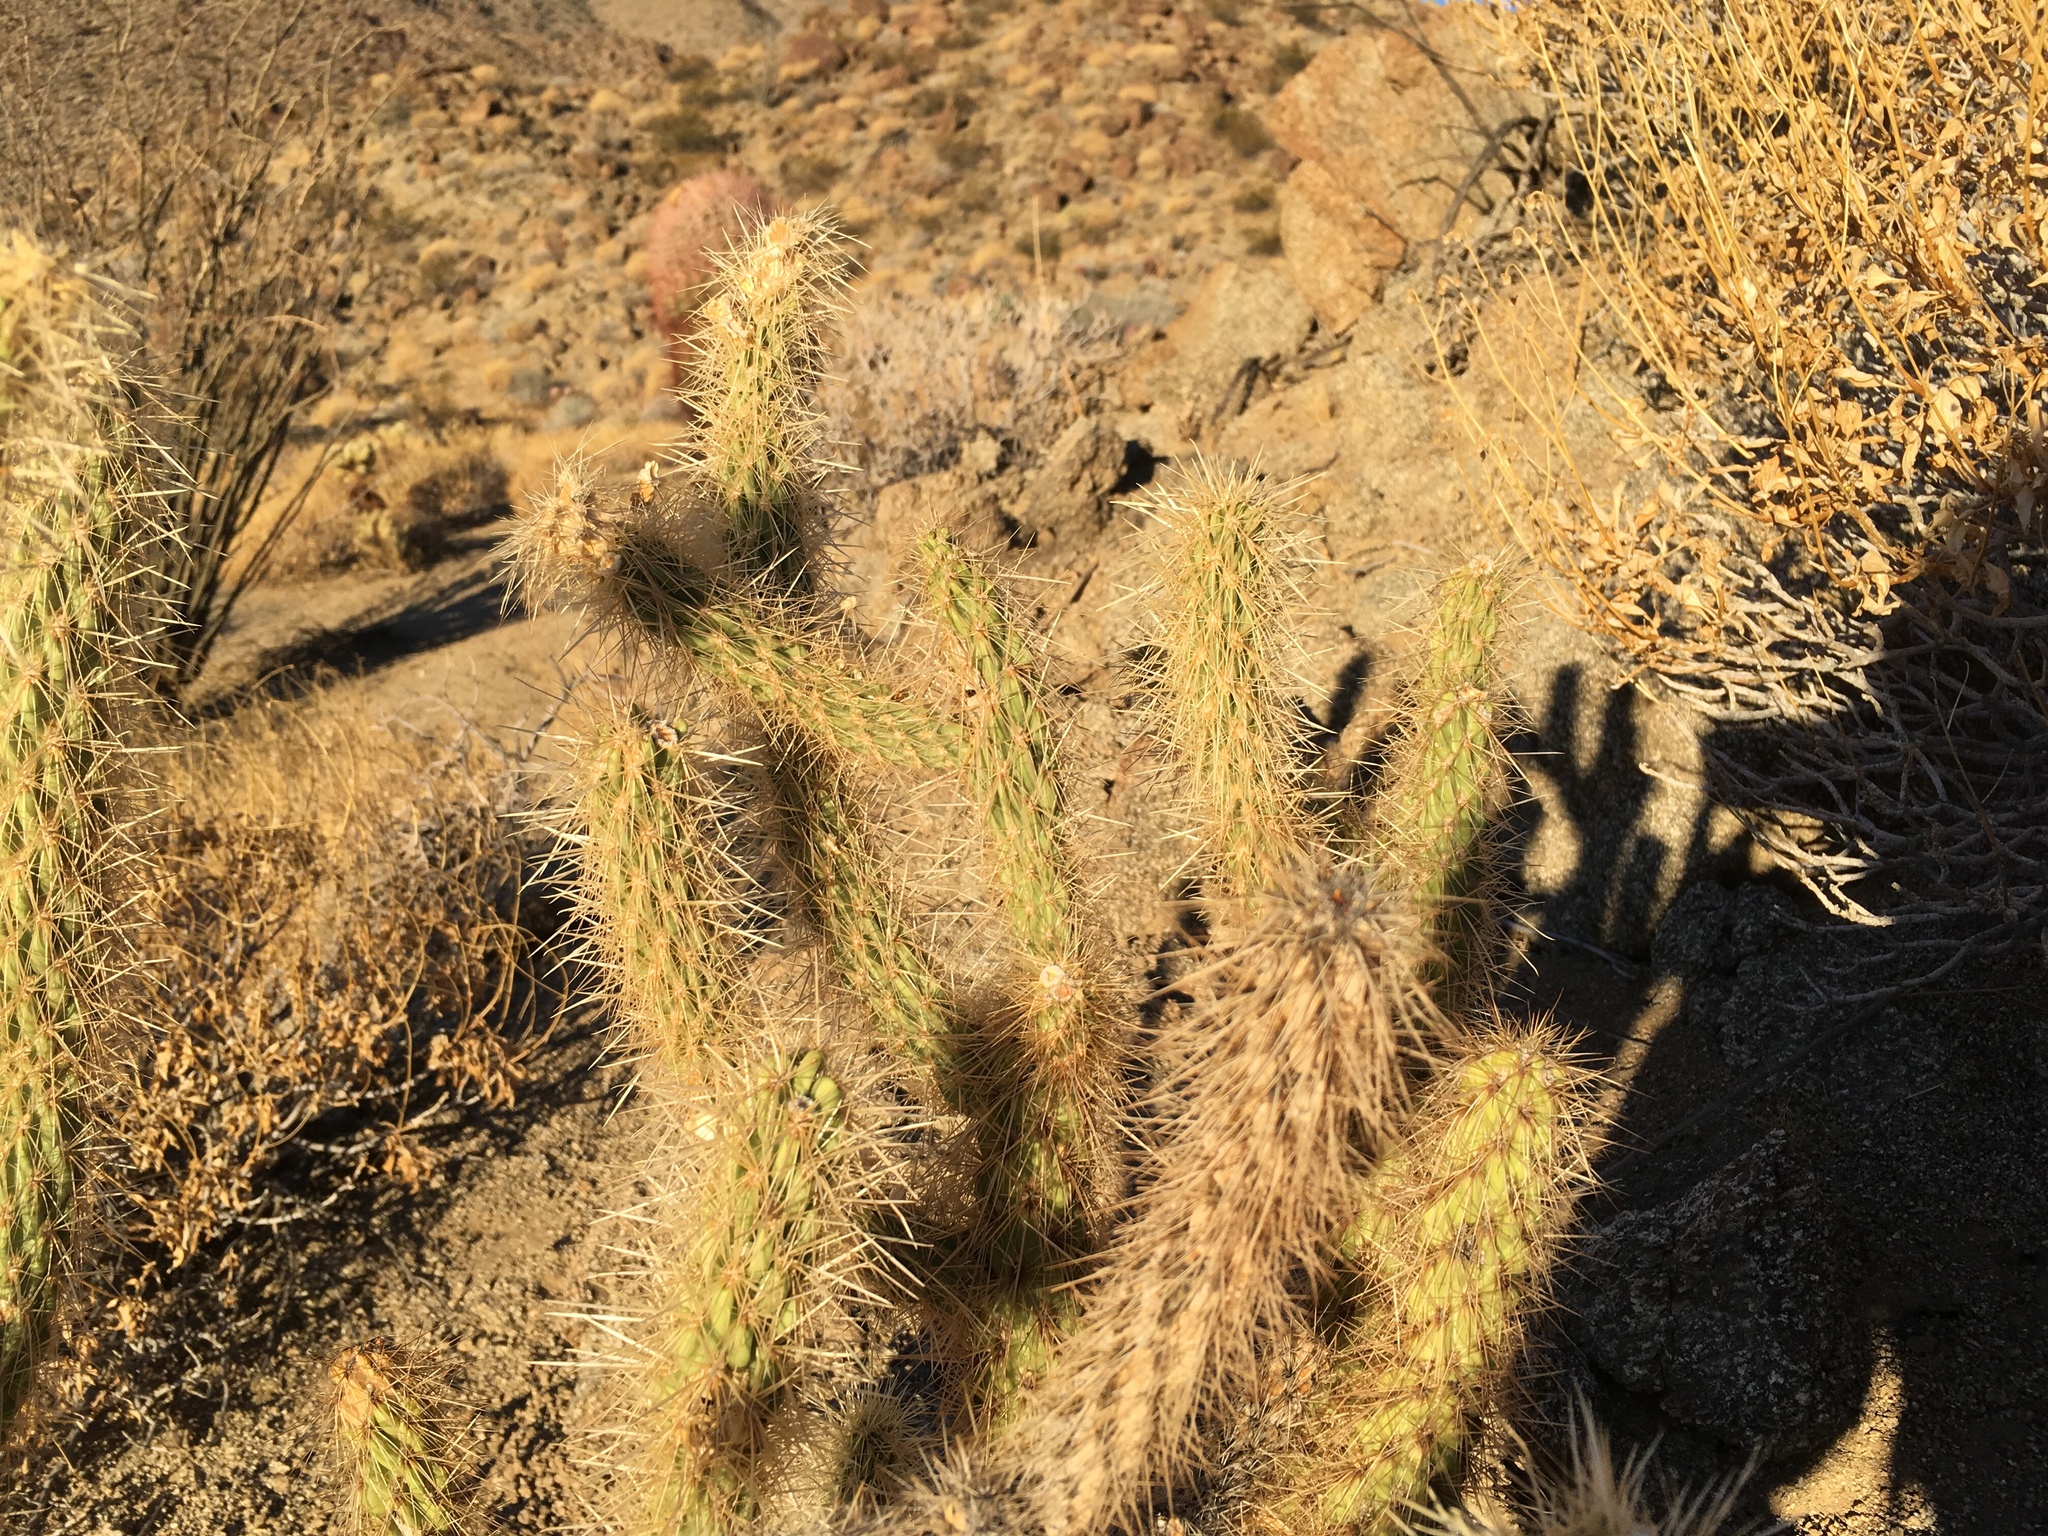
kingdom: Plantae
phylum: Tracheophyta
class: Magnoliopsida
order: Caryophyllales
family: Cactaceae
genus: Cylindropuntia
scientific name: Cylindropuntia ganderi
